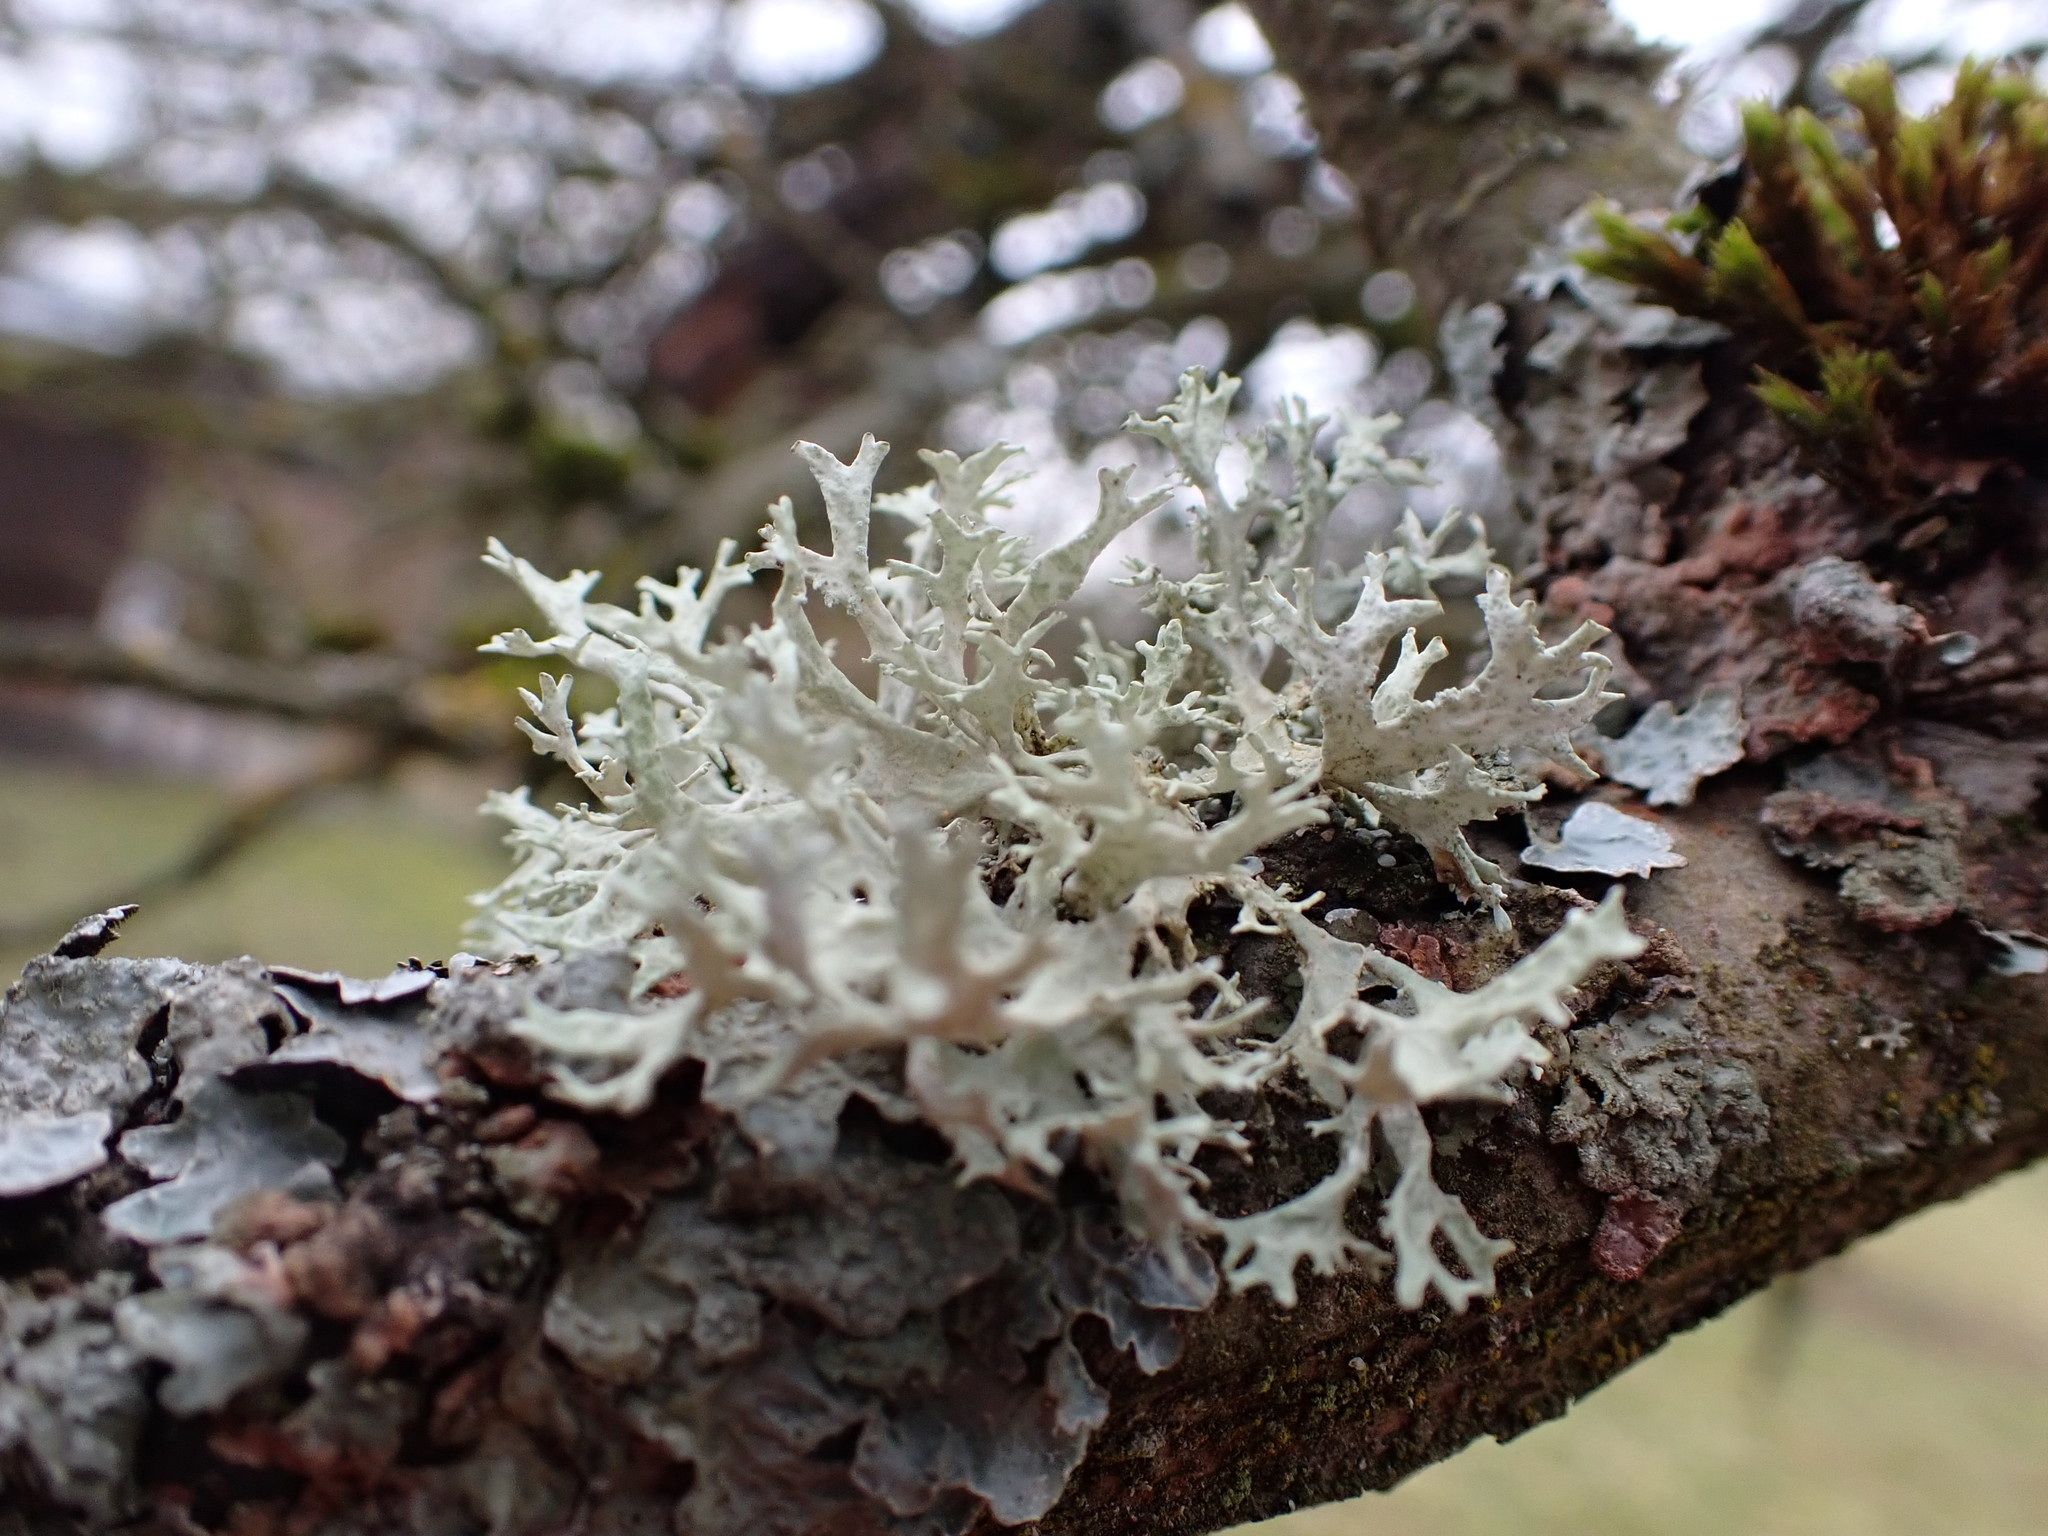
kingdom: Fungi
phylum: Ascomycota
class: Lecanoromycetes
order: Lecanorales
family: Parmeliaceae
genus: Evernia
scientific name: Evernia prunastri
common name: Oak moss
